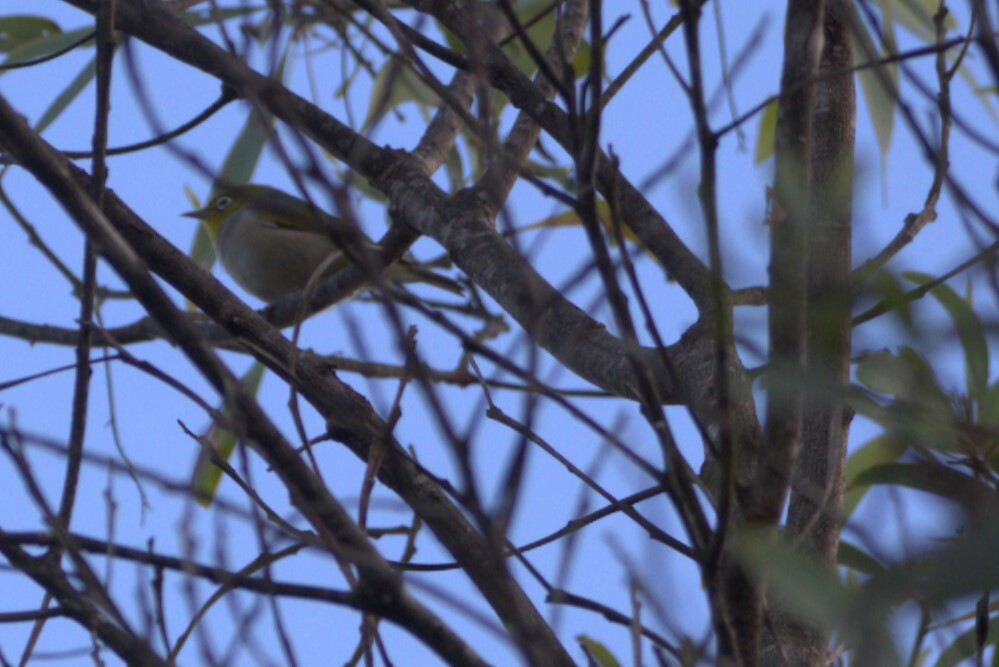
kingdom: Animalia
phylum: Chordata
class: Aves
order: Passeriformes
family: Zosteropidae
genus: Zosterops
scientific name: Zosterops lateralis
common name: Silvereye
